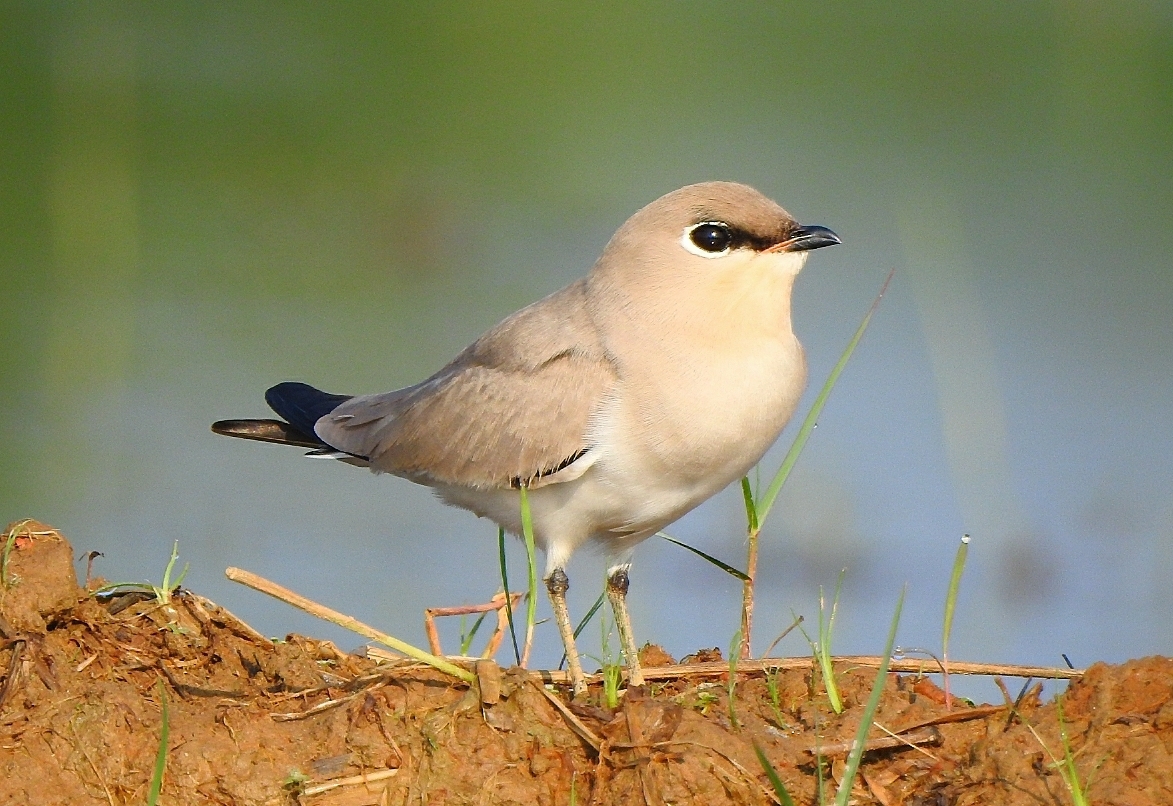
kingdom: Animalia
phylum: Chordata
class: Aves
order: Charadriiformes
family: Glareolidae
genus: Glareola
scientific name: Glareola lactea
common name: Small pratincole
